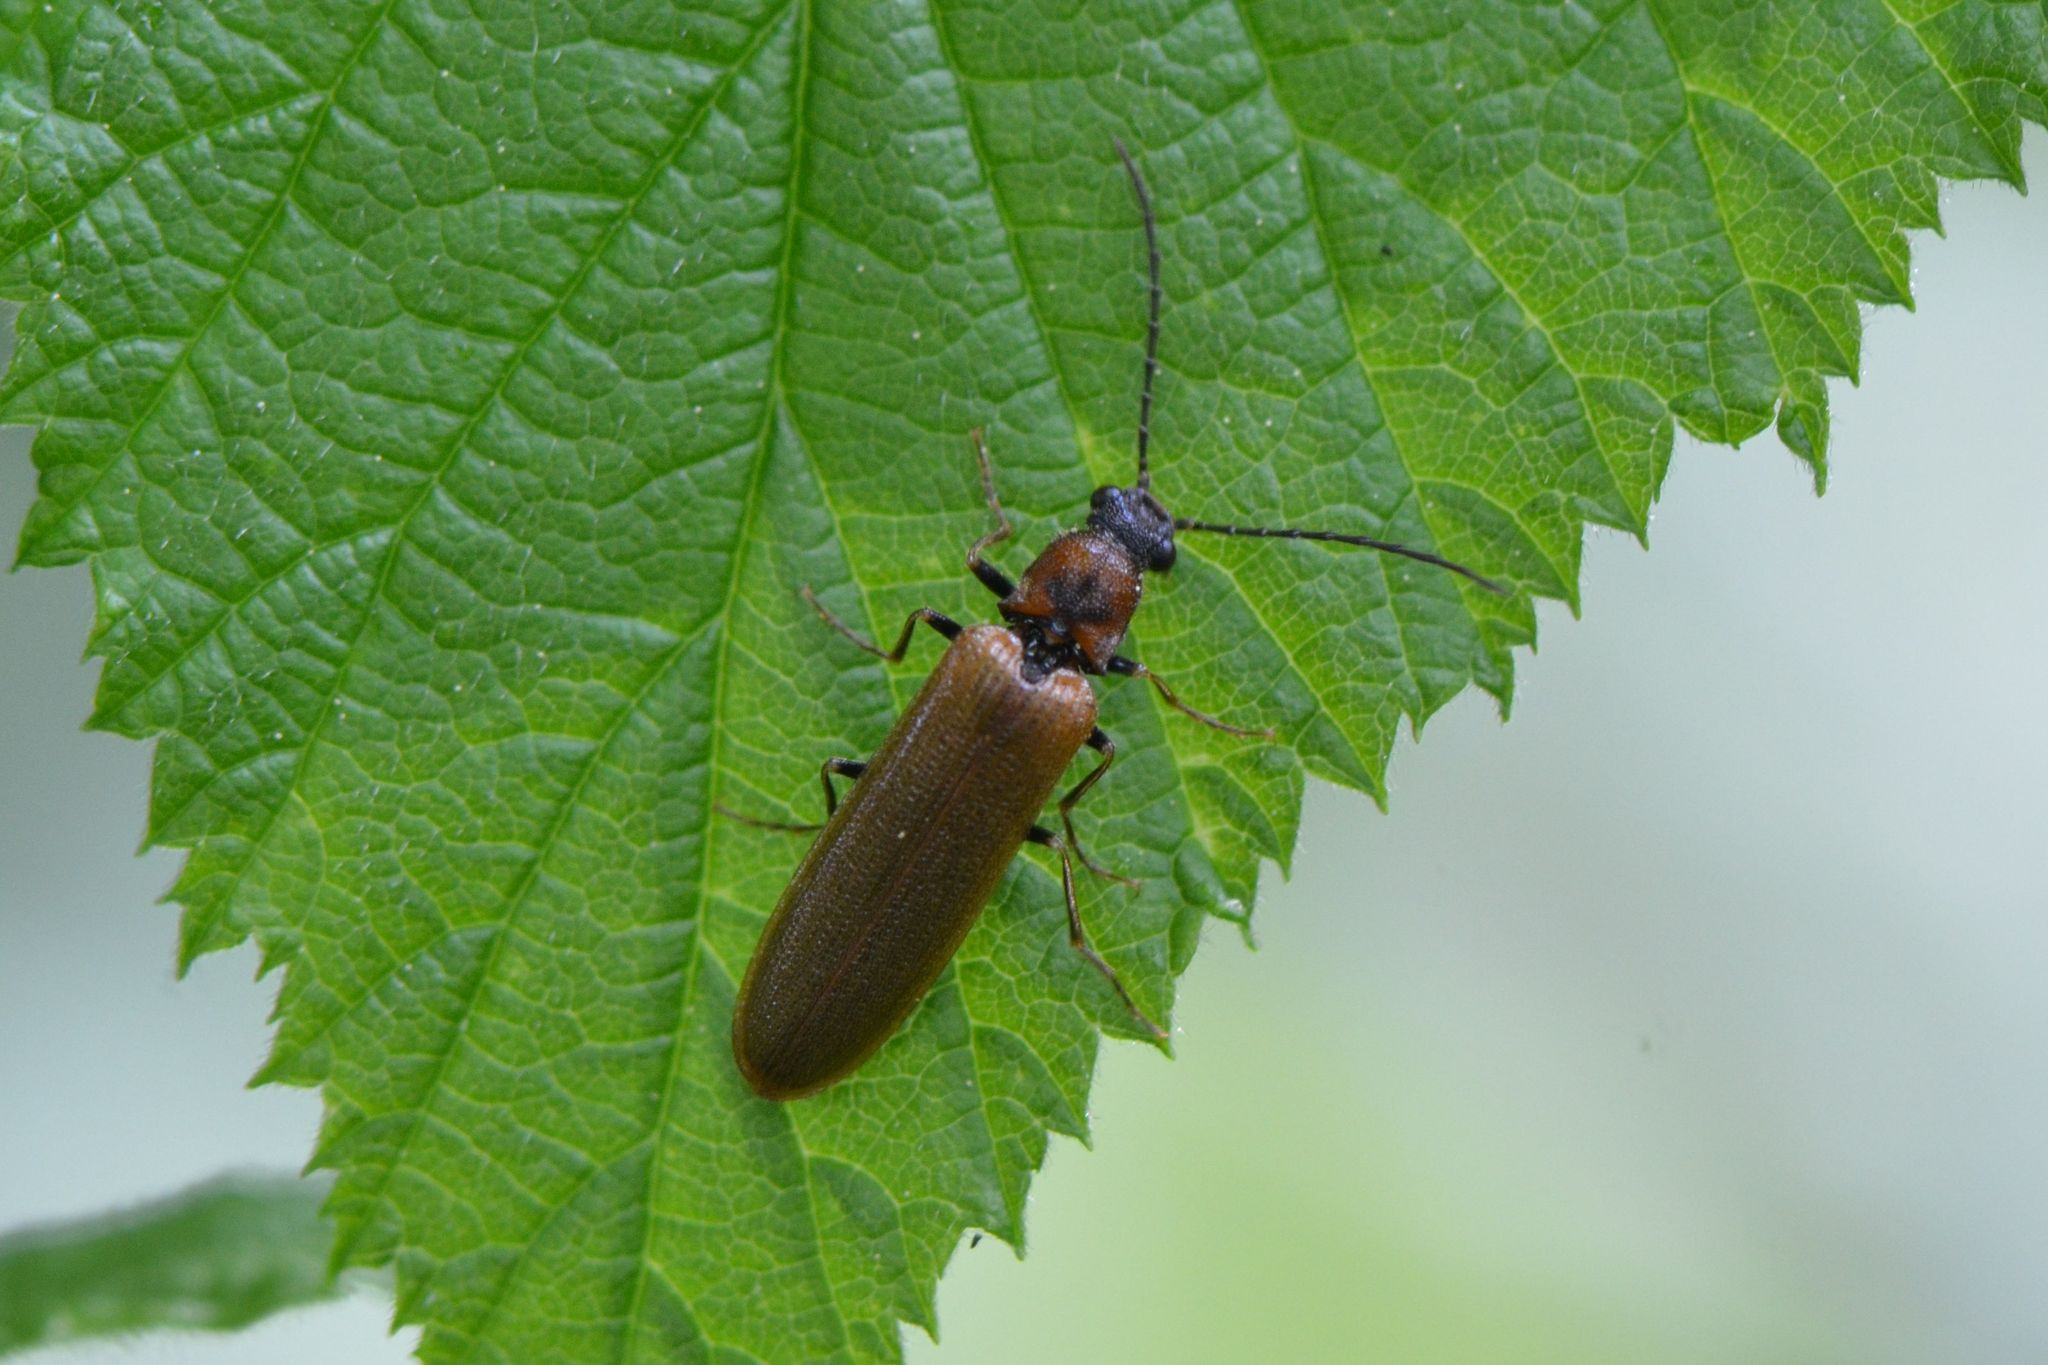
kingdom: Animalia
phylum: Arthropoda
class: Insecta
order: Coleoptera
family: Elateridae
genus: Denticollis
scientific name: Denticollis linearis
